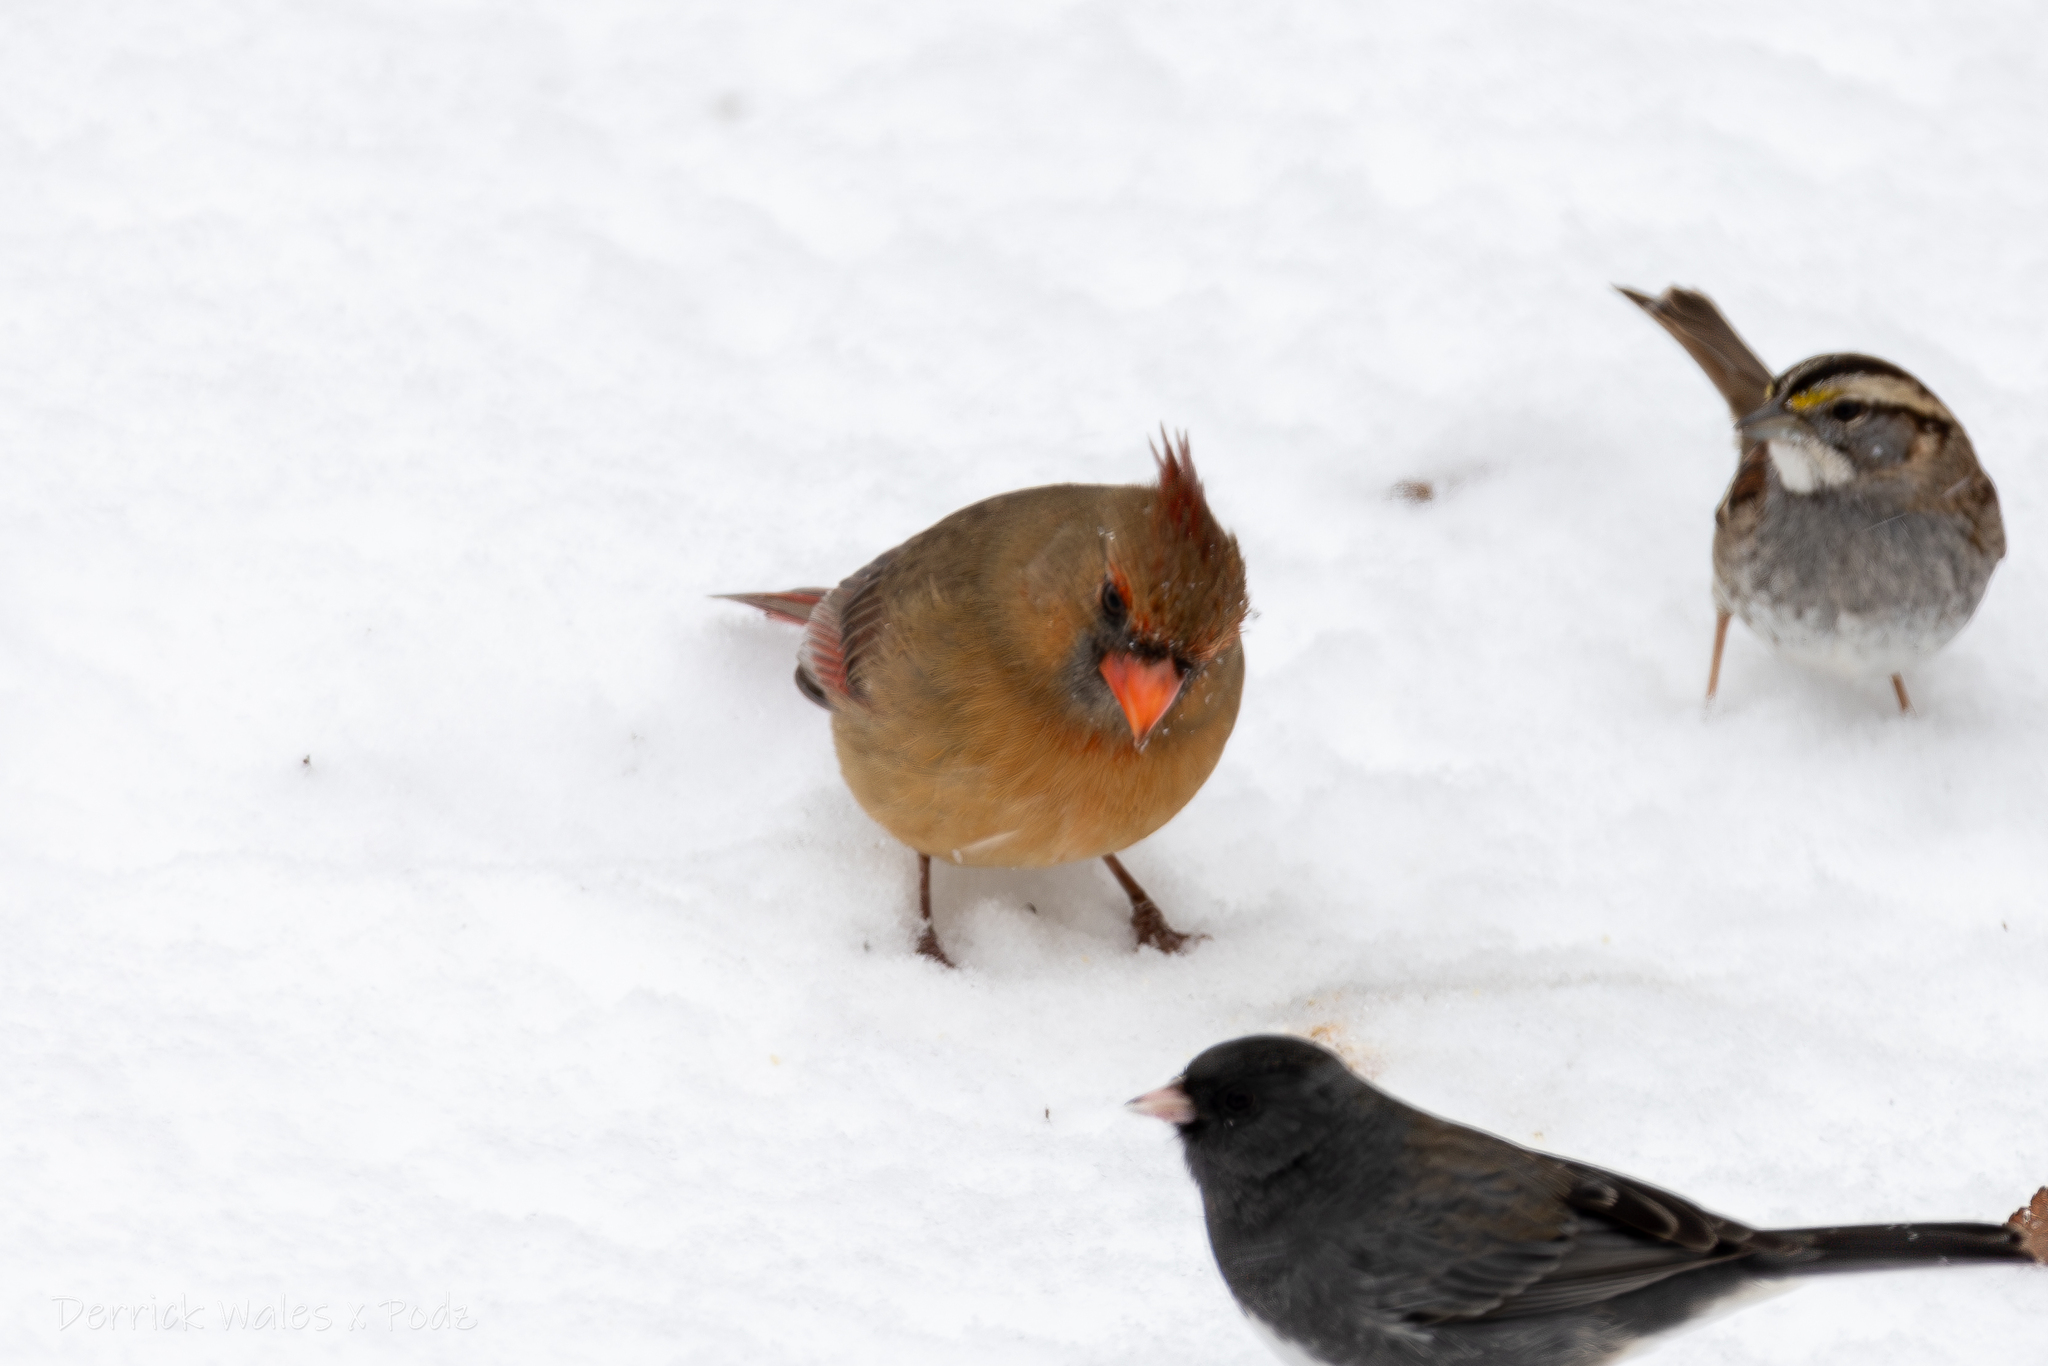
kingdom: Animalia
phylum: Chordata
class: Aves
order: Passeriformes
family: Cardinalidae
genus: Cardinalis
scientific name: Cardinalis cardinalis
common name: Northern cardinal
